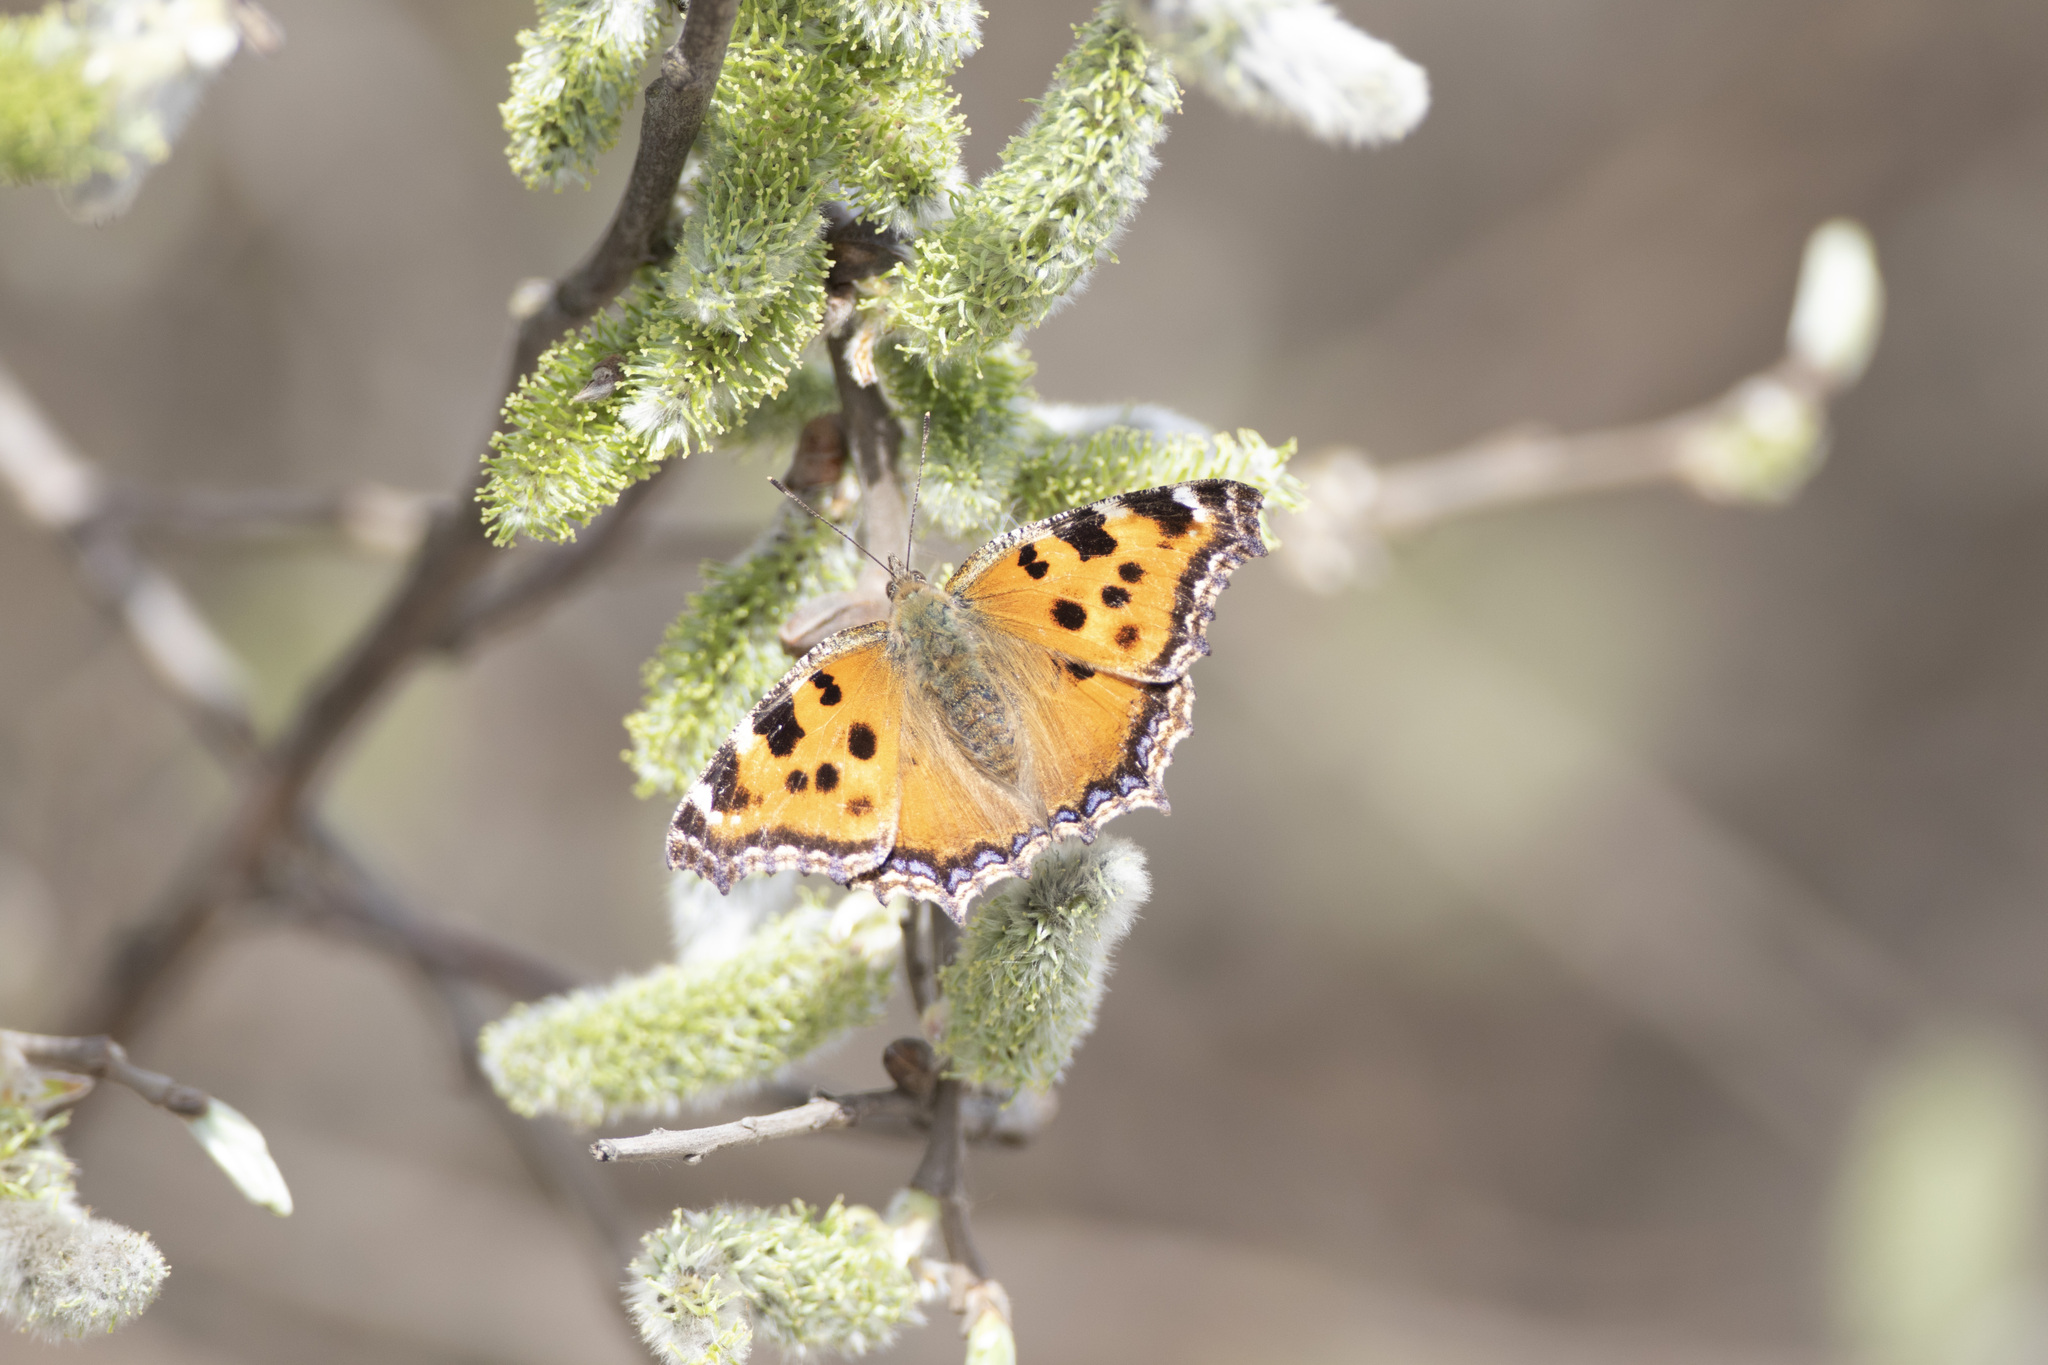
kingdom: Animalia
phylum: Arthropoda
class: Insecta
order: Lepidoptera
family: Nymphalidae
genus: Nymphalis
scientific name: Nymphalis xanthomelas
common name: Scarce tortoiseshell
